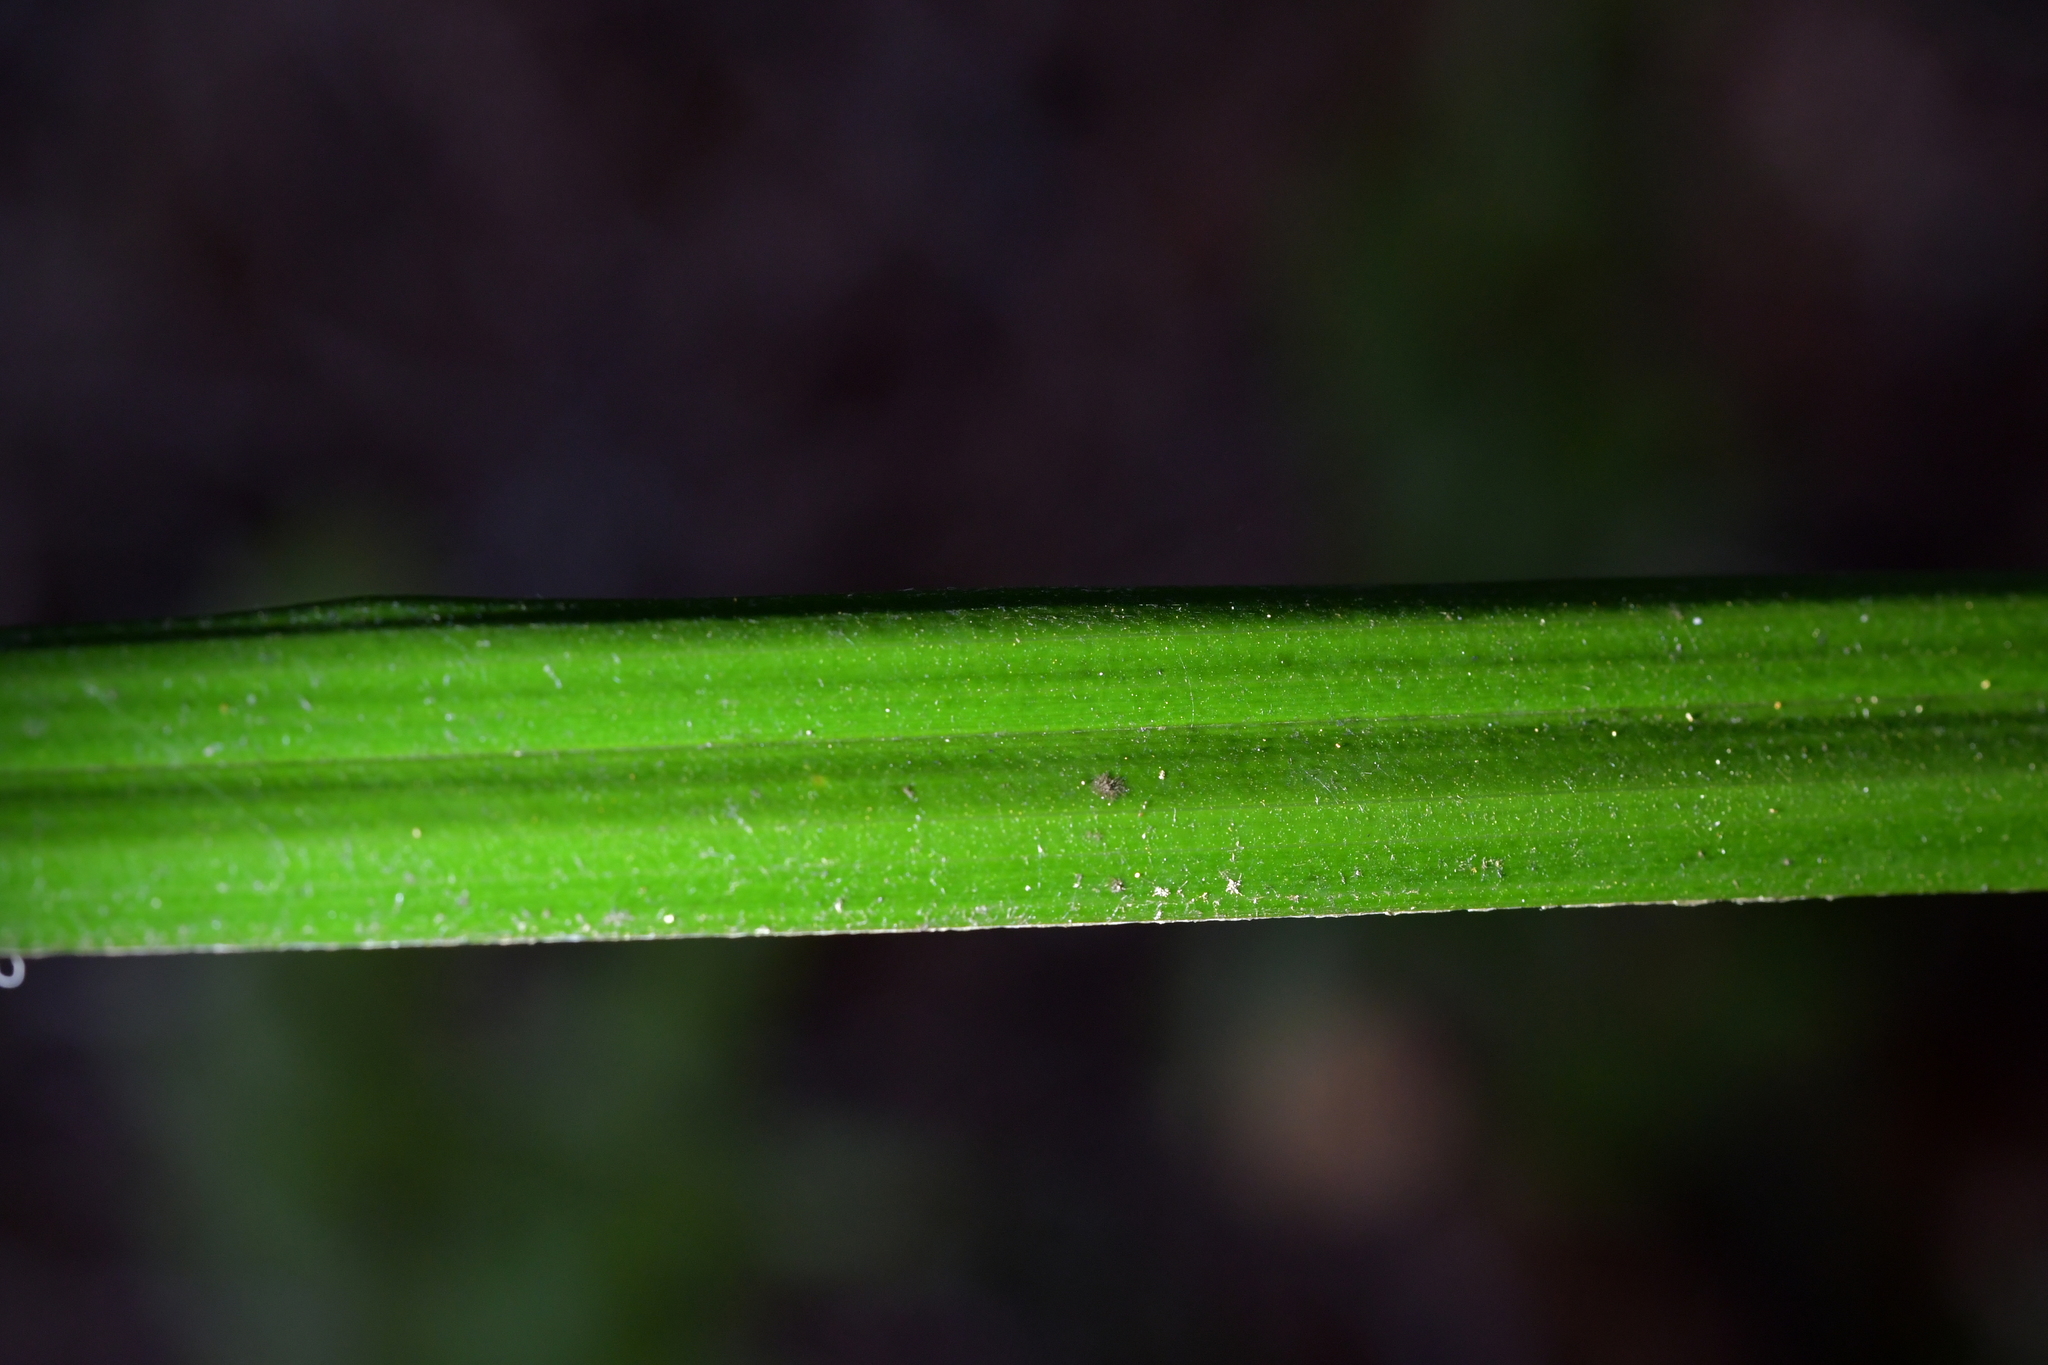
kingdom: Plantae
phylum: Tracheophyta
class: Liliopsida
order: Asparagales
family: Asteliaceae
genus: Astelia
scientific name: Astelia solandri
